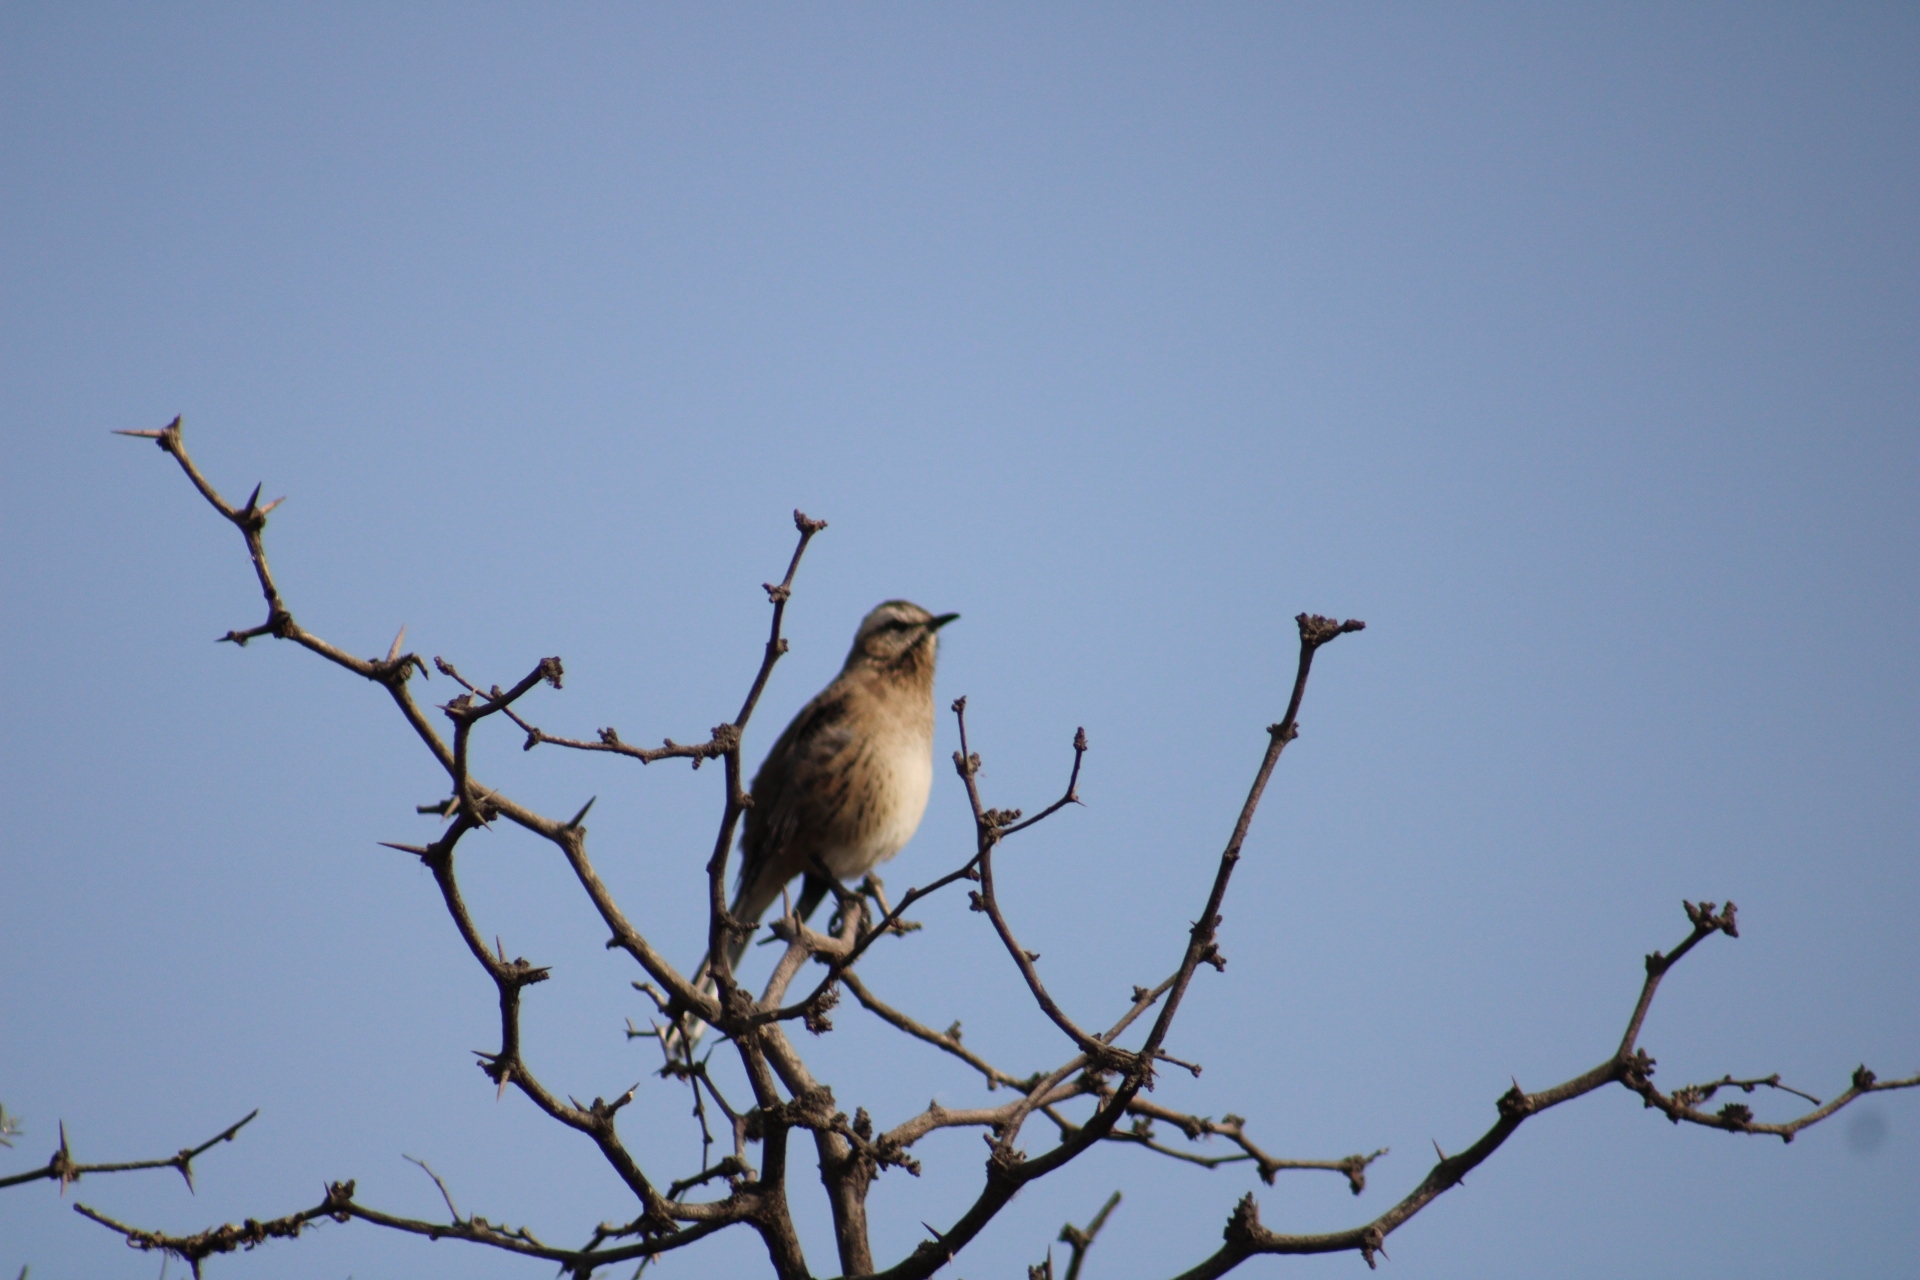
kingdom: Animalia
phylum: Chordata
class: Aves
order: Passeriformes
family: Mimidae
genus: Mimus
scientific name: Mimus thenca
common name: Chilean mockingbird
